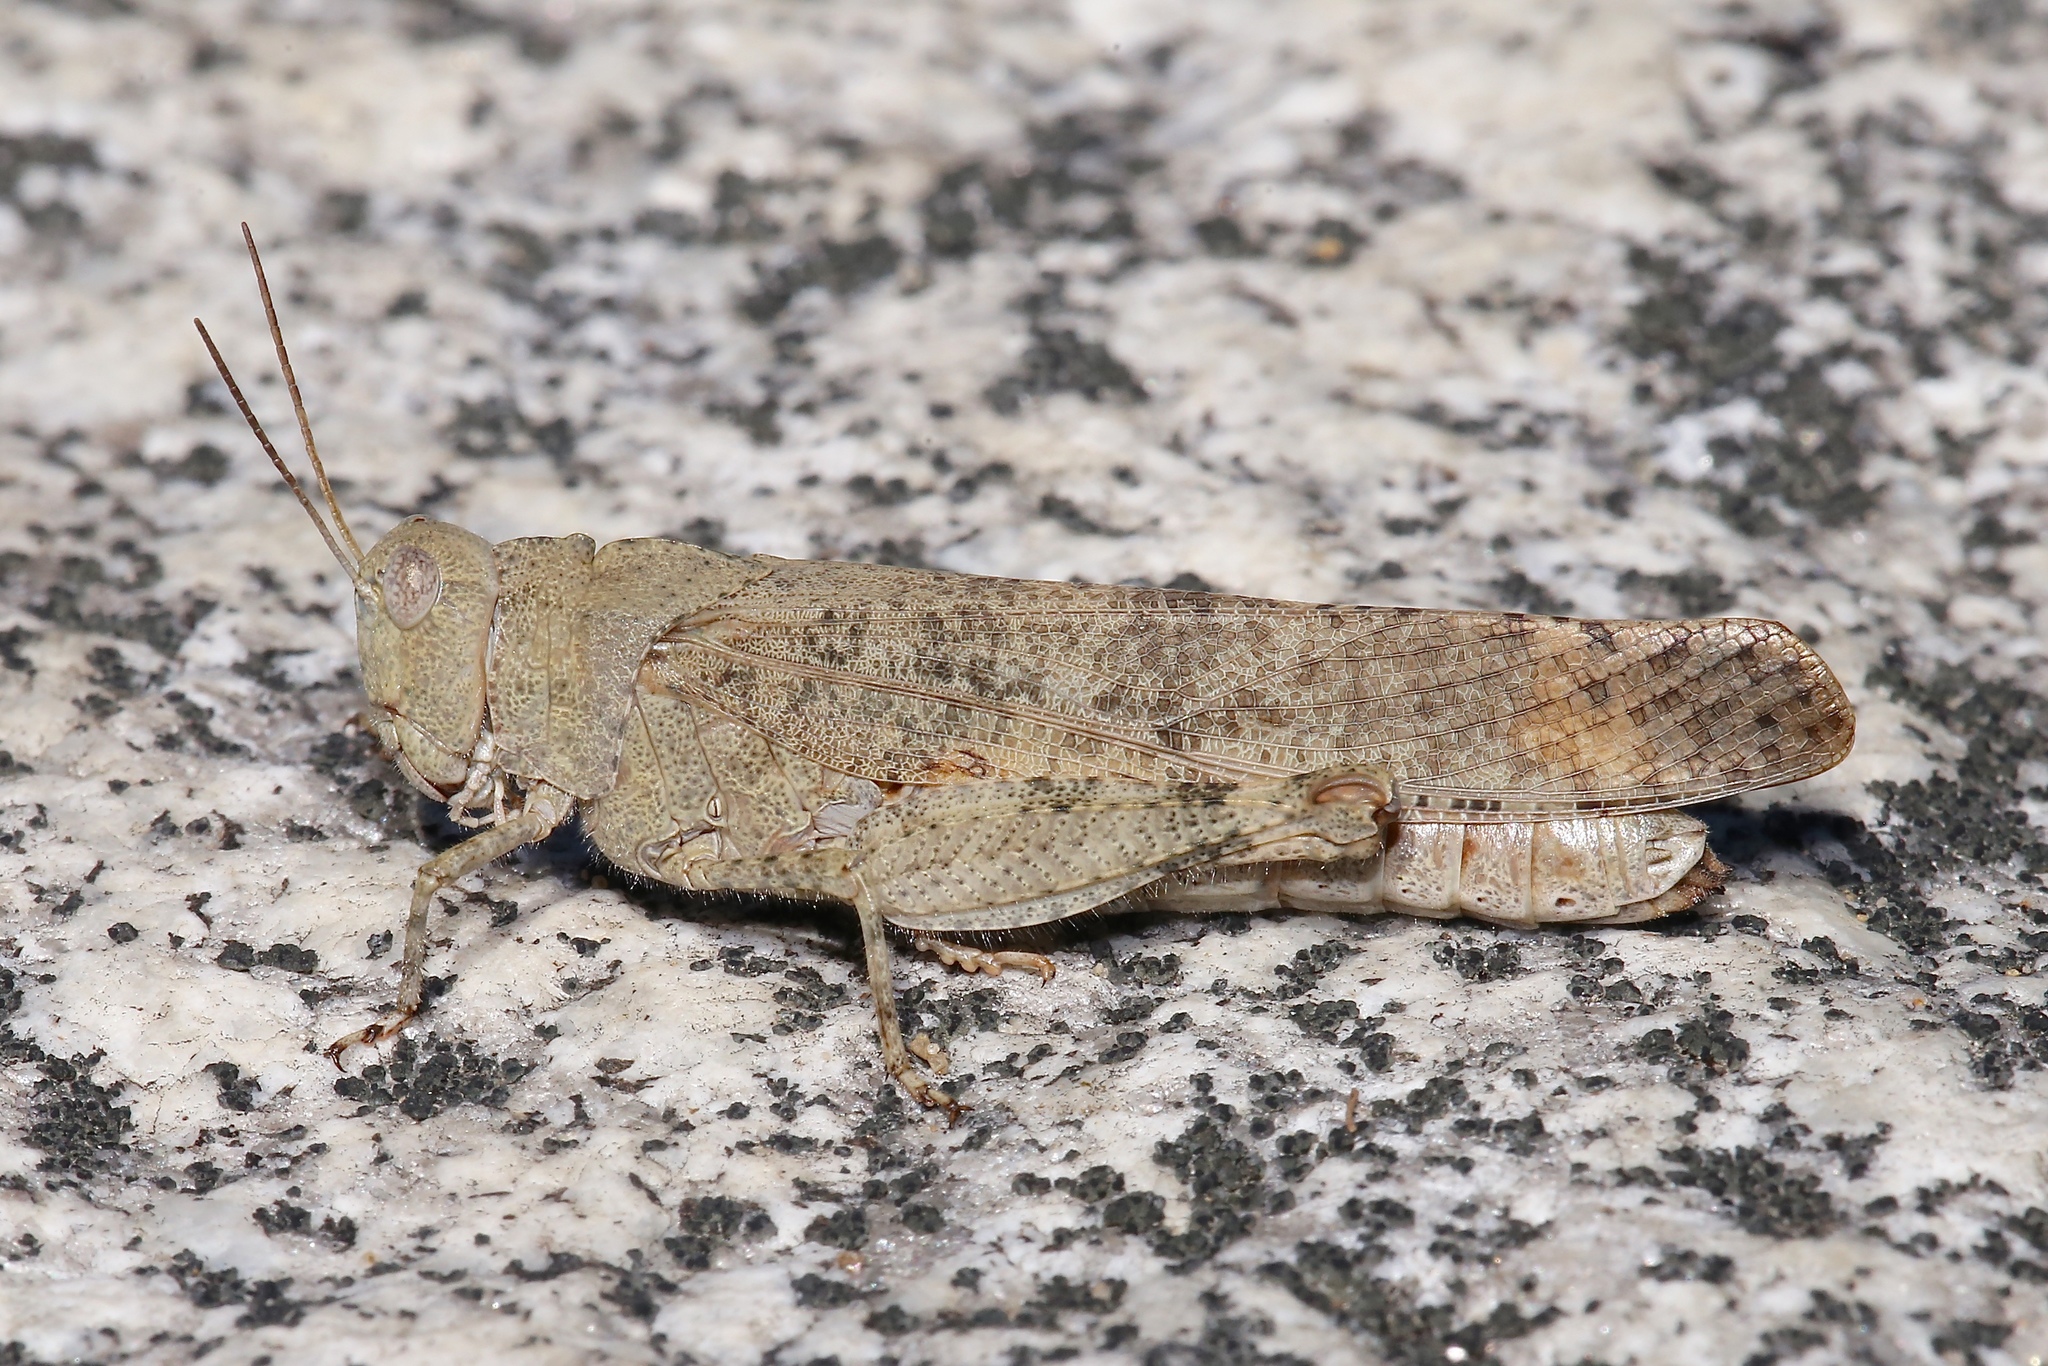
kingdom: Animalia
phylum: Arthropoda
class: Insecta
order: Orthoptera
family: Acrididae
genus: Dissosteira
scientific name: Dissosteira carolina
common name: Carolina grasshopper
